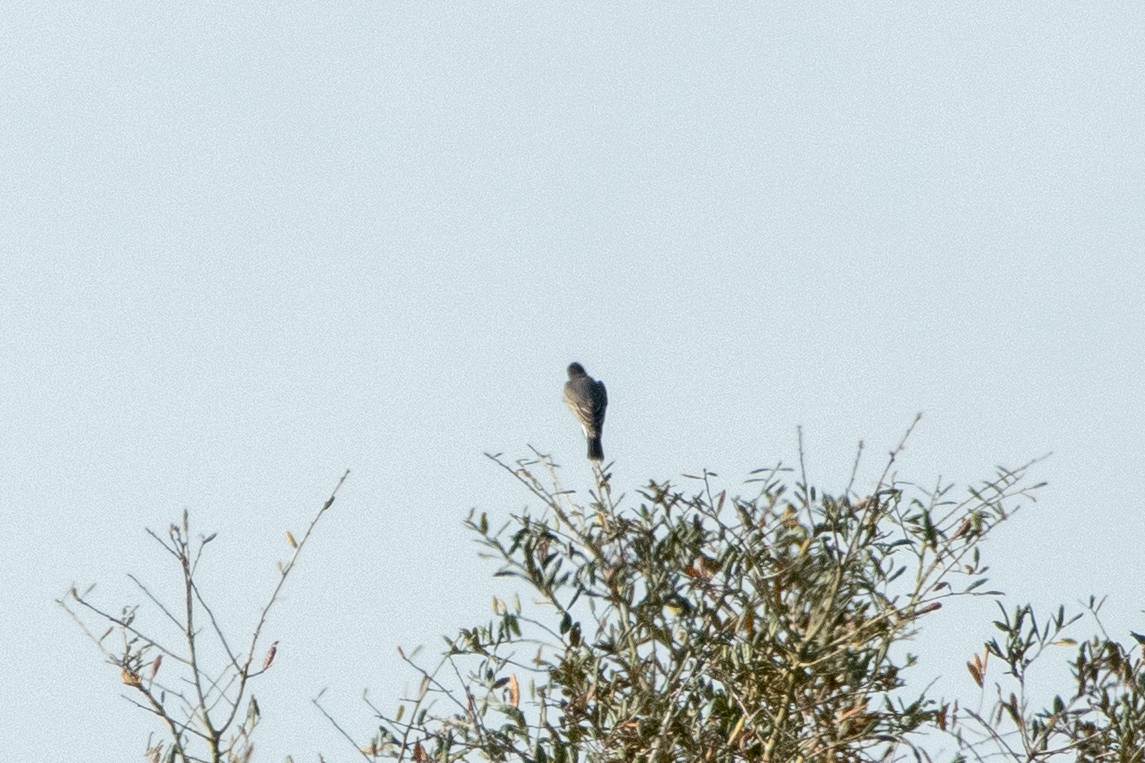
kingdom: Animalia
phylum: Chordata
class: Aves
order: Passeriformes
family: Tyrannidae
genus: Tyrannus
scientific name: Tyrannus tyrannus
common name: Eastern kingbird
